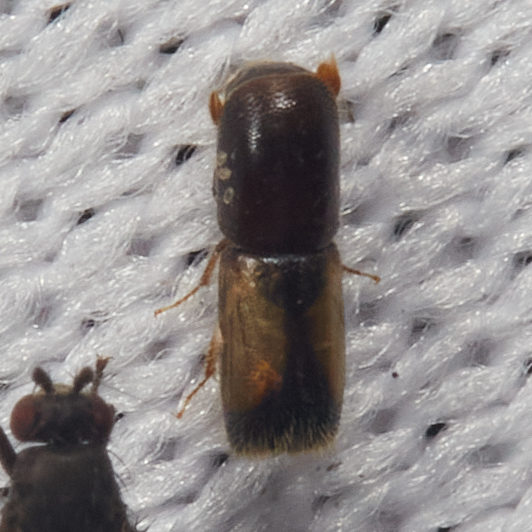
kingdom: Animalia
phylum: Arthropoda
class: Insecta
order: Coleoptera
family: Curculionidae
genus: Monarthrum
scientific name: Monarthrum fasciatum
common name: Yellow-banded timber beetle
